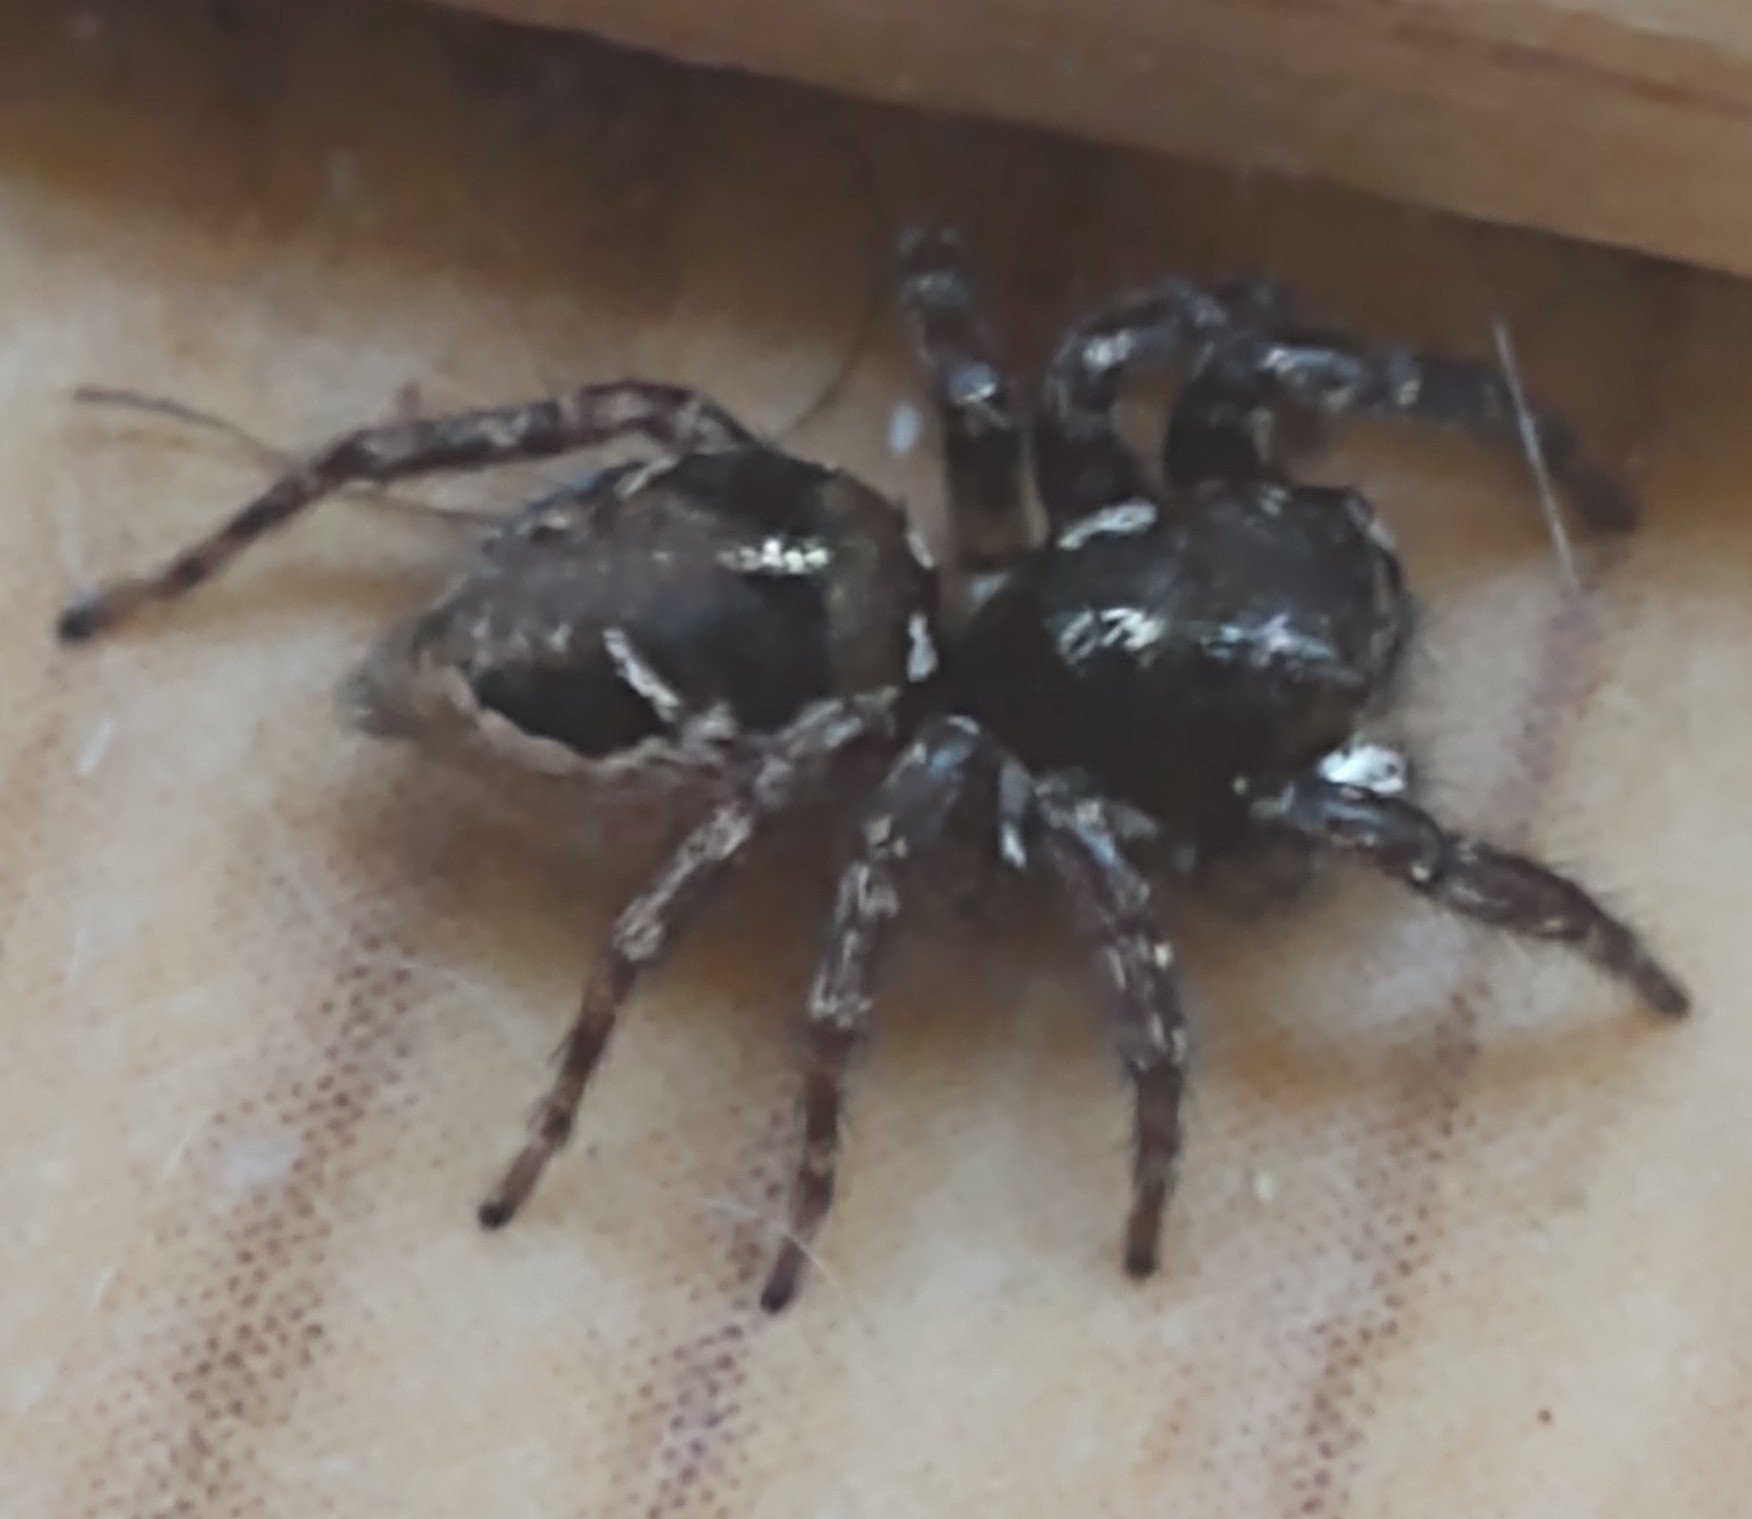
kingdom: Animalia
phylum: Arthropoda
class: Arachnida
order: Araneae
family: Salticidae
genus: Anasaitis
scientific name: Anasaitis canosa
